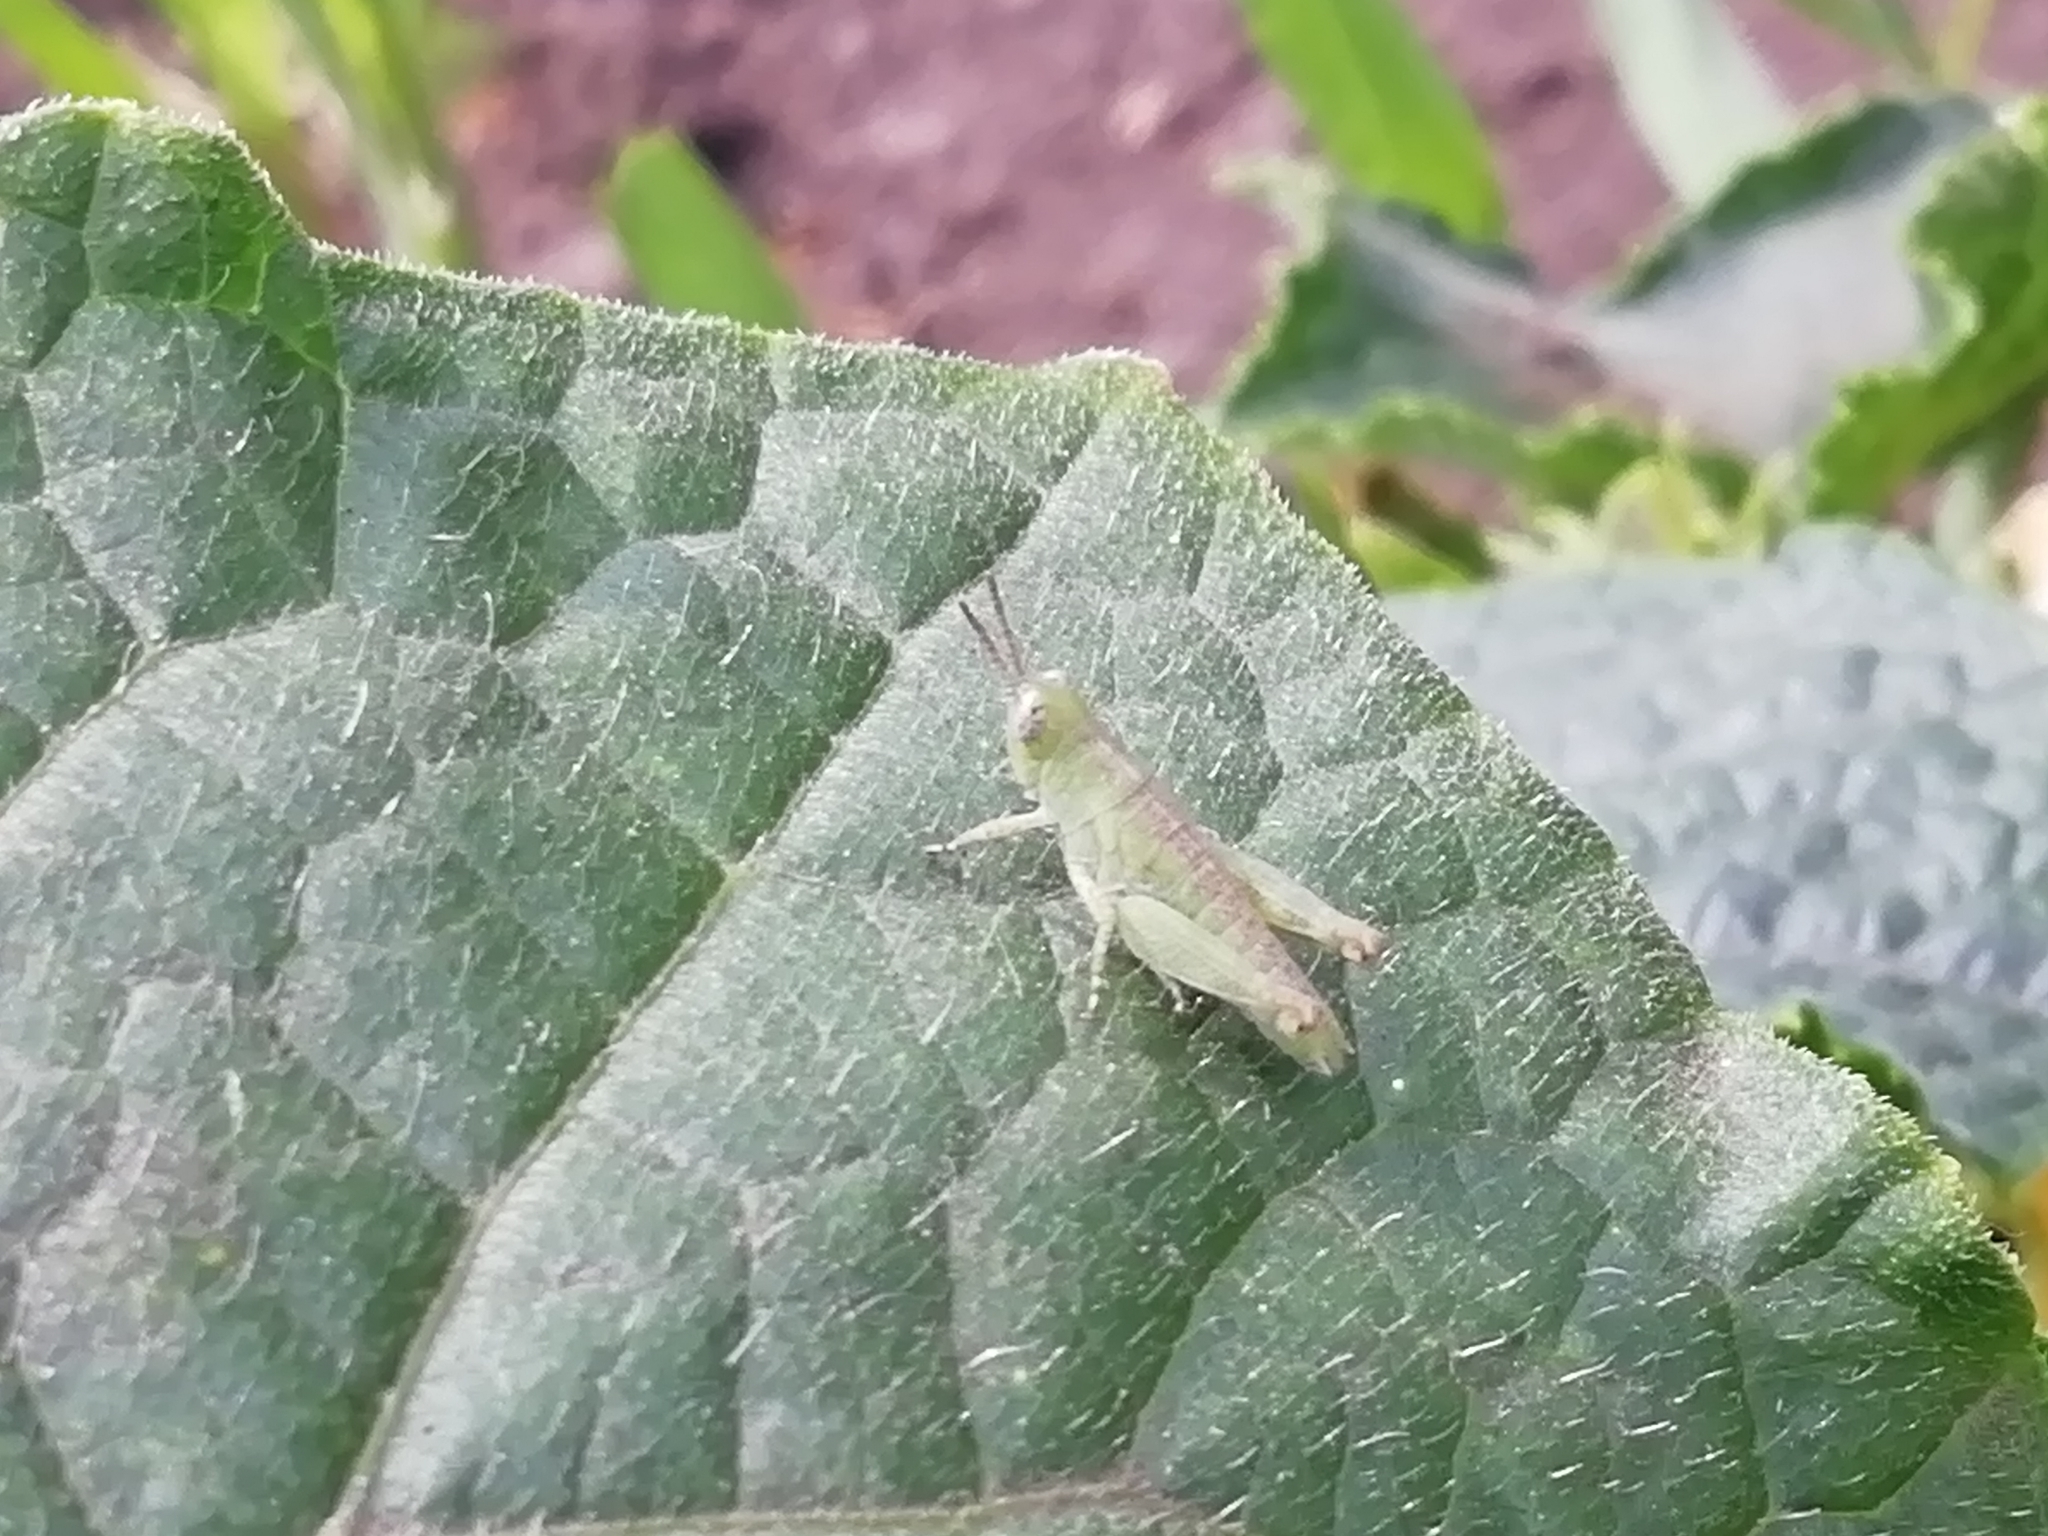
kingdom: Animalia
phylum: Arthropoda
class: Insecta
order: Orthoptera
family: Acrididae
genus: Aiolopus
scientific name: Aiolopus thalassinus
